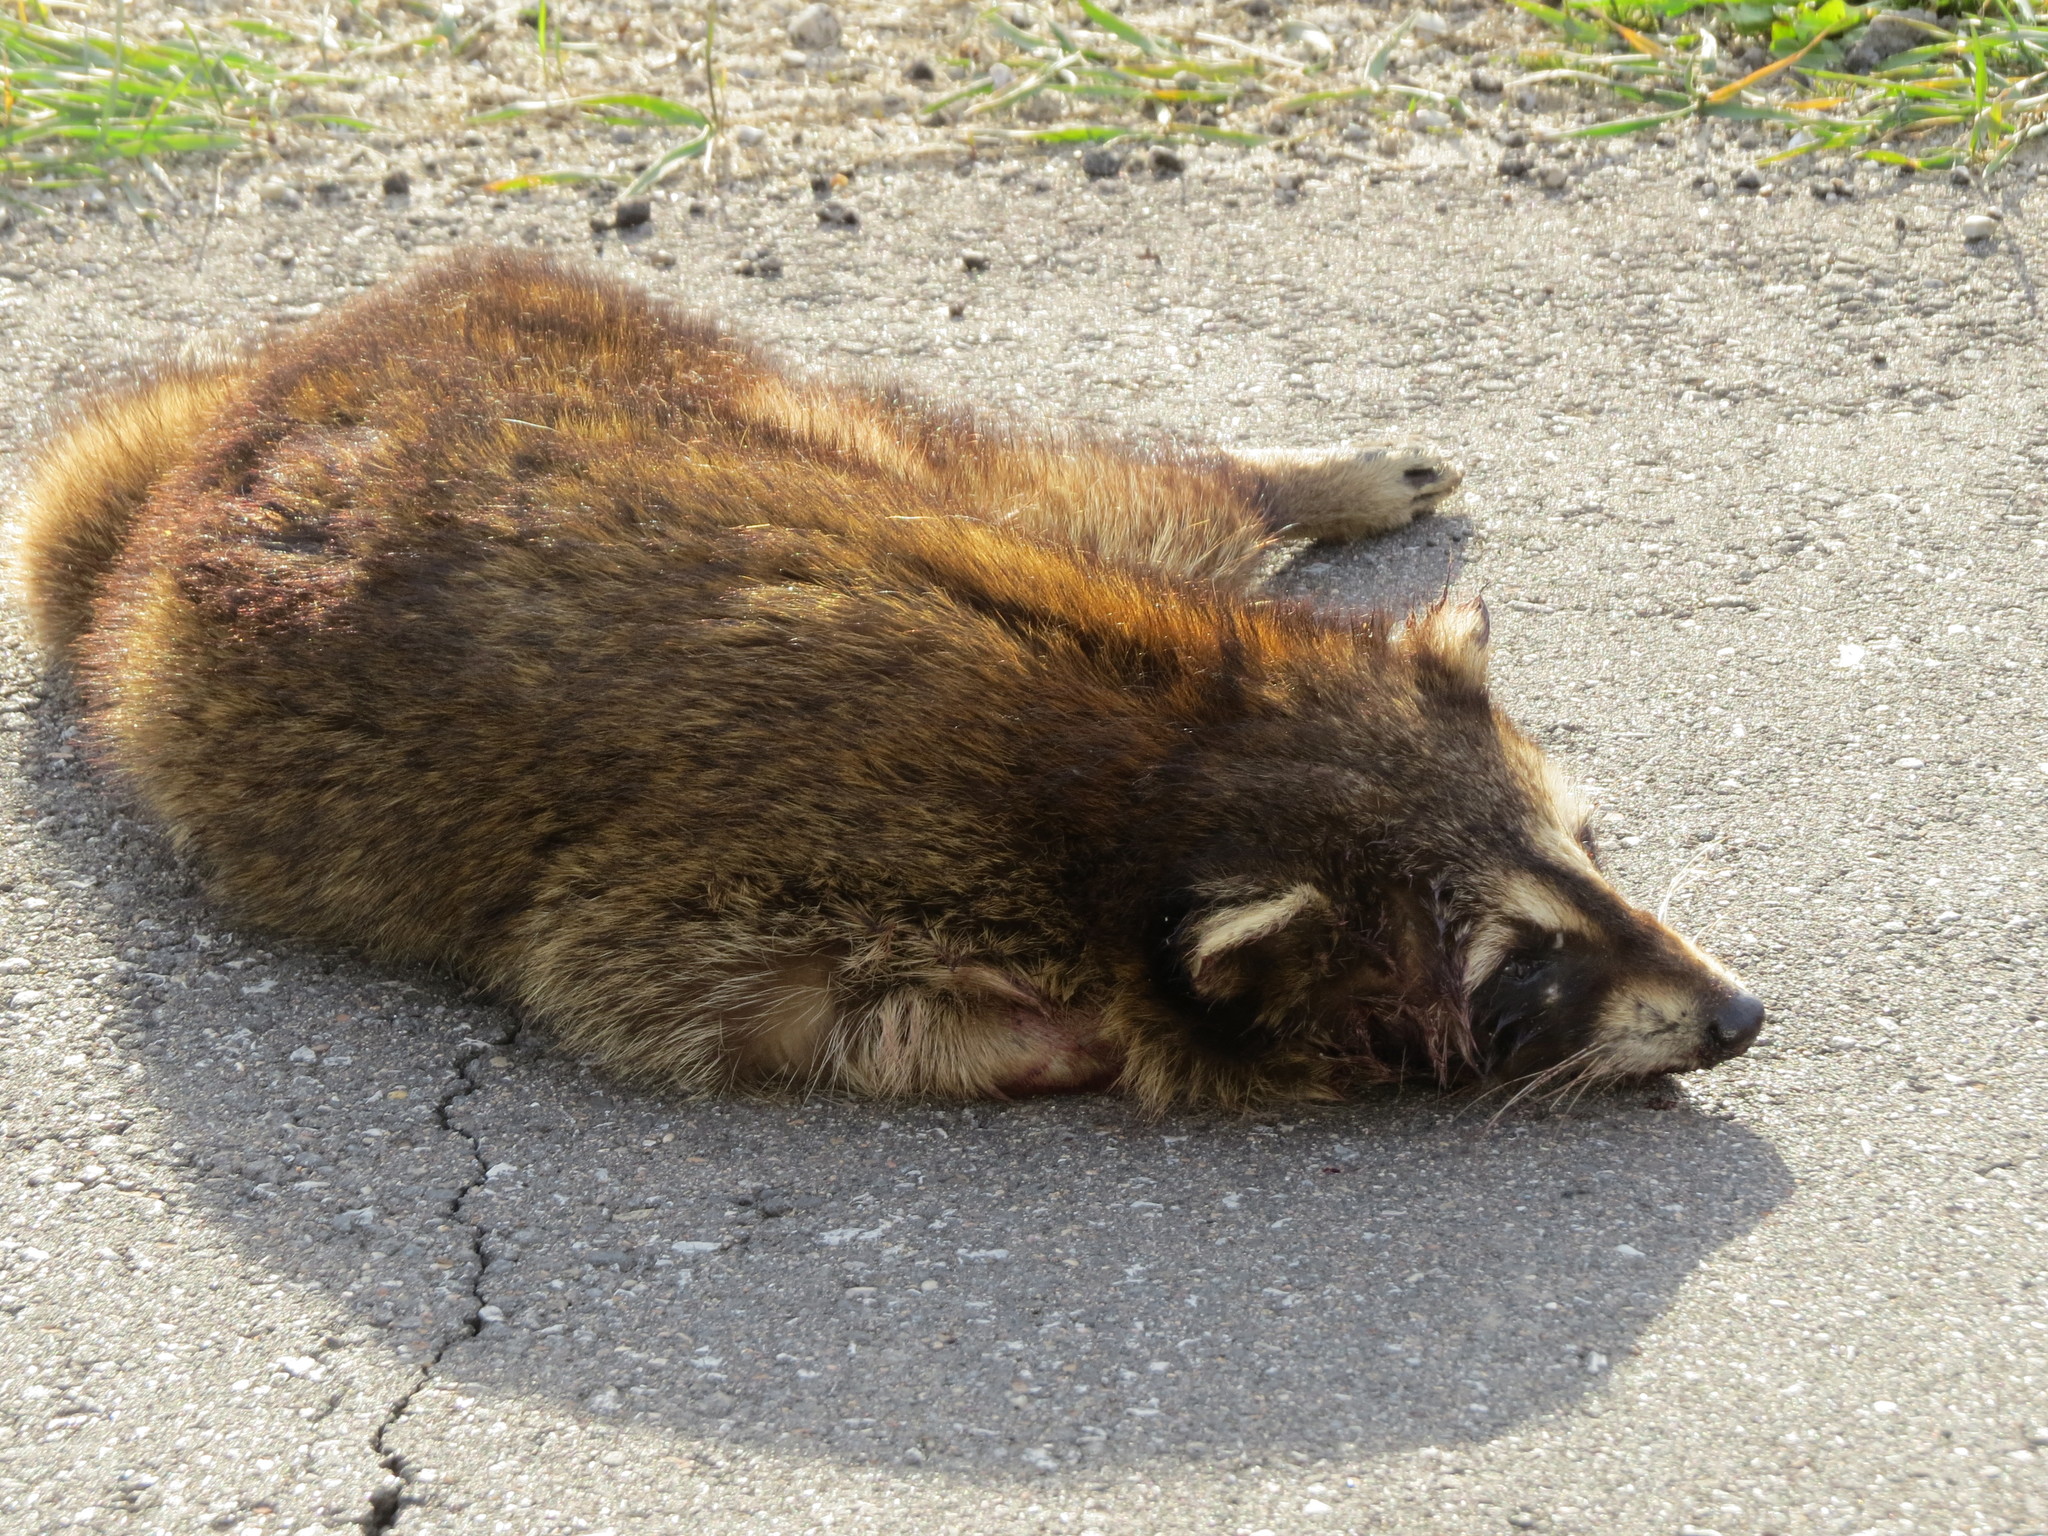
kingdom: Animalia
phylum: Chordata
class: Mammalia
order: Carnivora
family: Procyonidae
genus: Procyon
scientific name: Procyon lotor
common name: Raccoon
